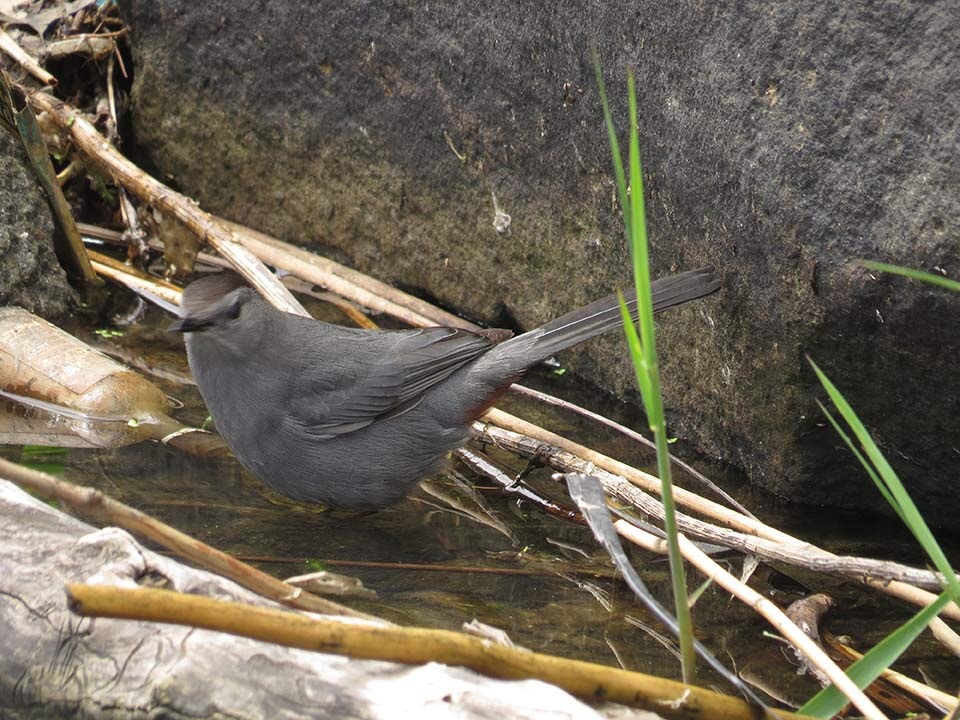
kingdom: Animalia
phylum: Chordata
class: Aves
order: Passeriformes
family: Mimidae
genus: Dumetella
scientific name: Dumetella carolinensis
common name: Gray catbird
